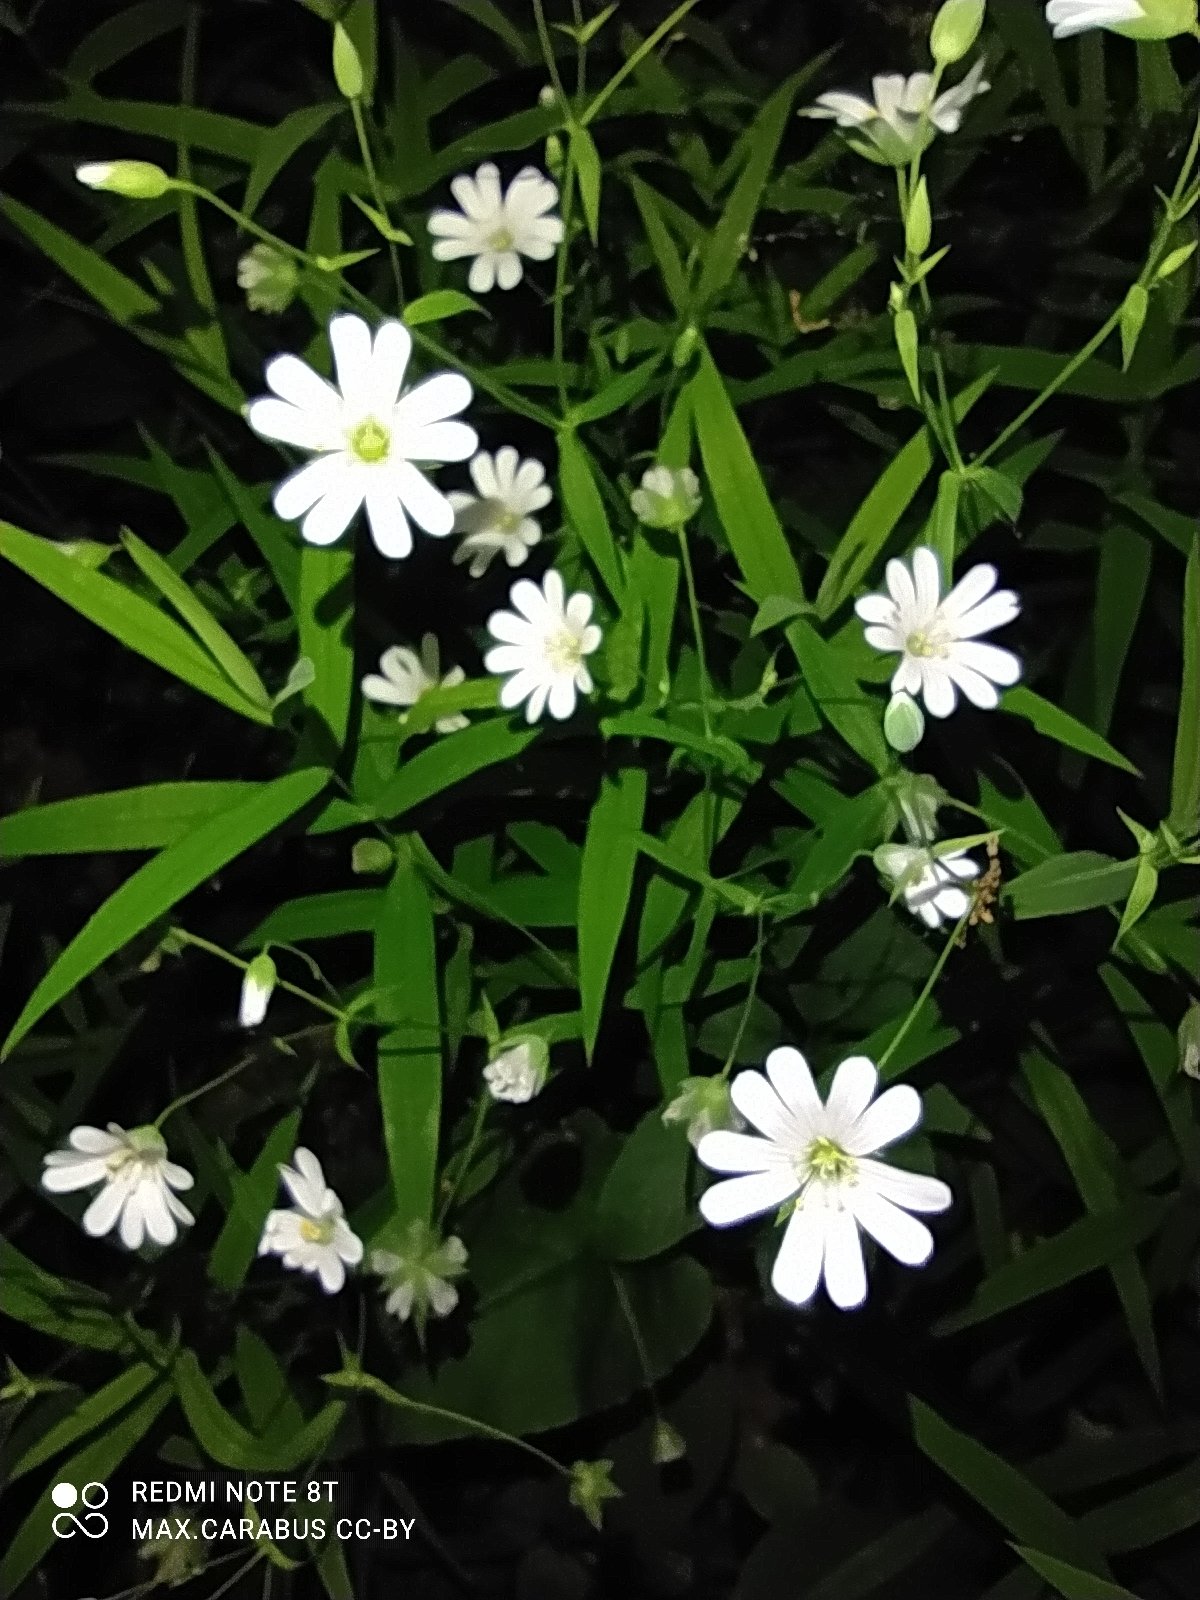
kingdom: Plantae
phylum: Tracheophyta
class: Magnoliopsida
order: Caryophyllales
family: Caryophyllaceae
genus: Rabelera
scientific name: Rabelera holostea
